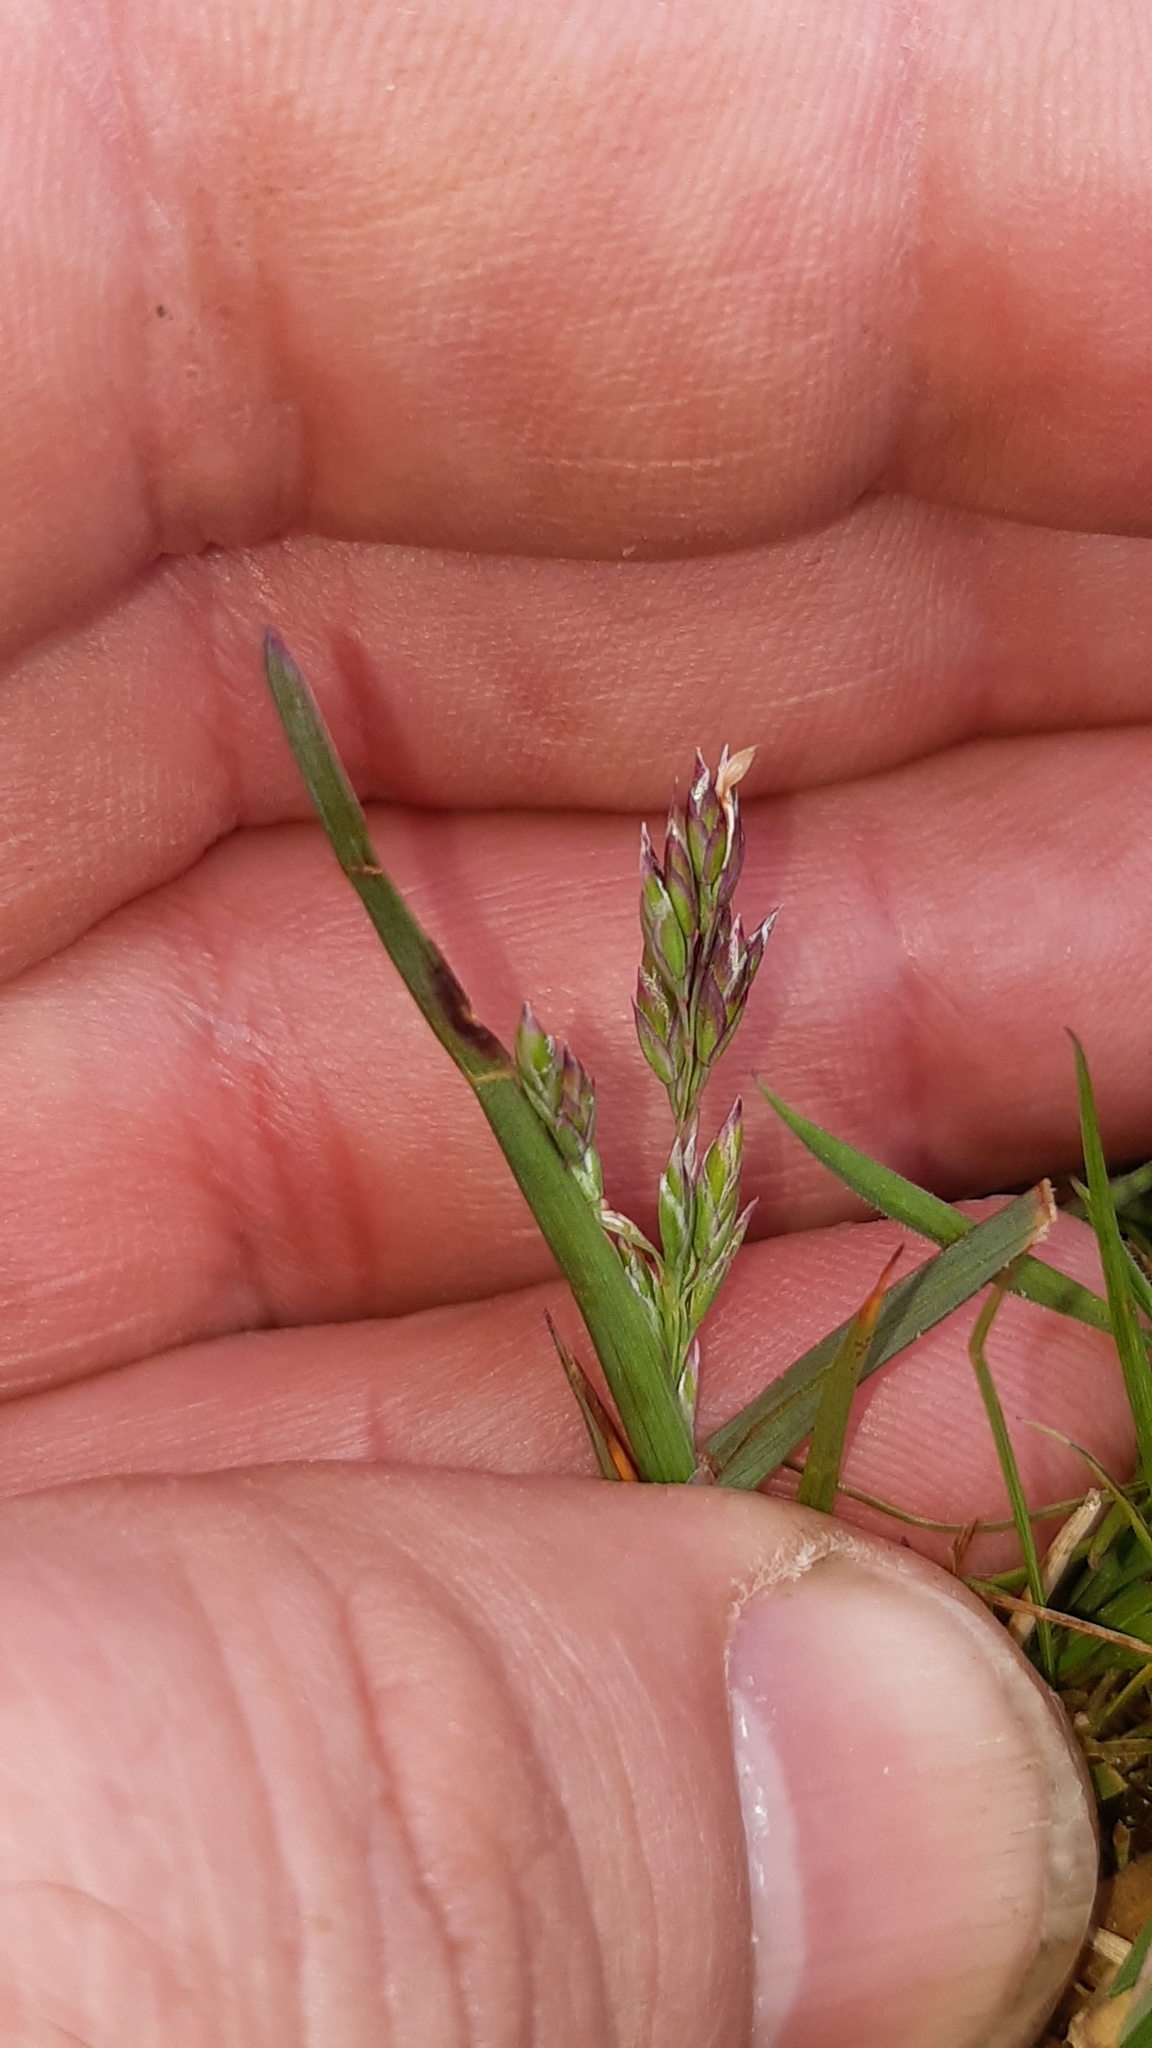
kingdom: Plantae
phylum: Tracheophyta
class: Liliopsida
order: Poales
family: Poaceae
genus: Poa
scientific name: Poa annua
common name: Annual bluegrass
